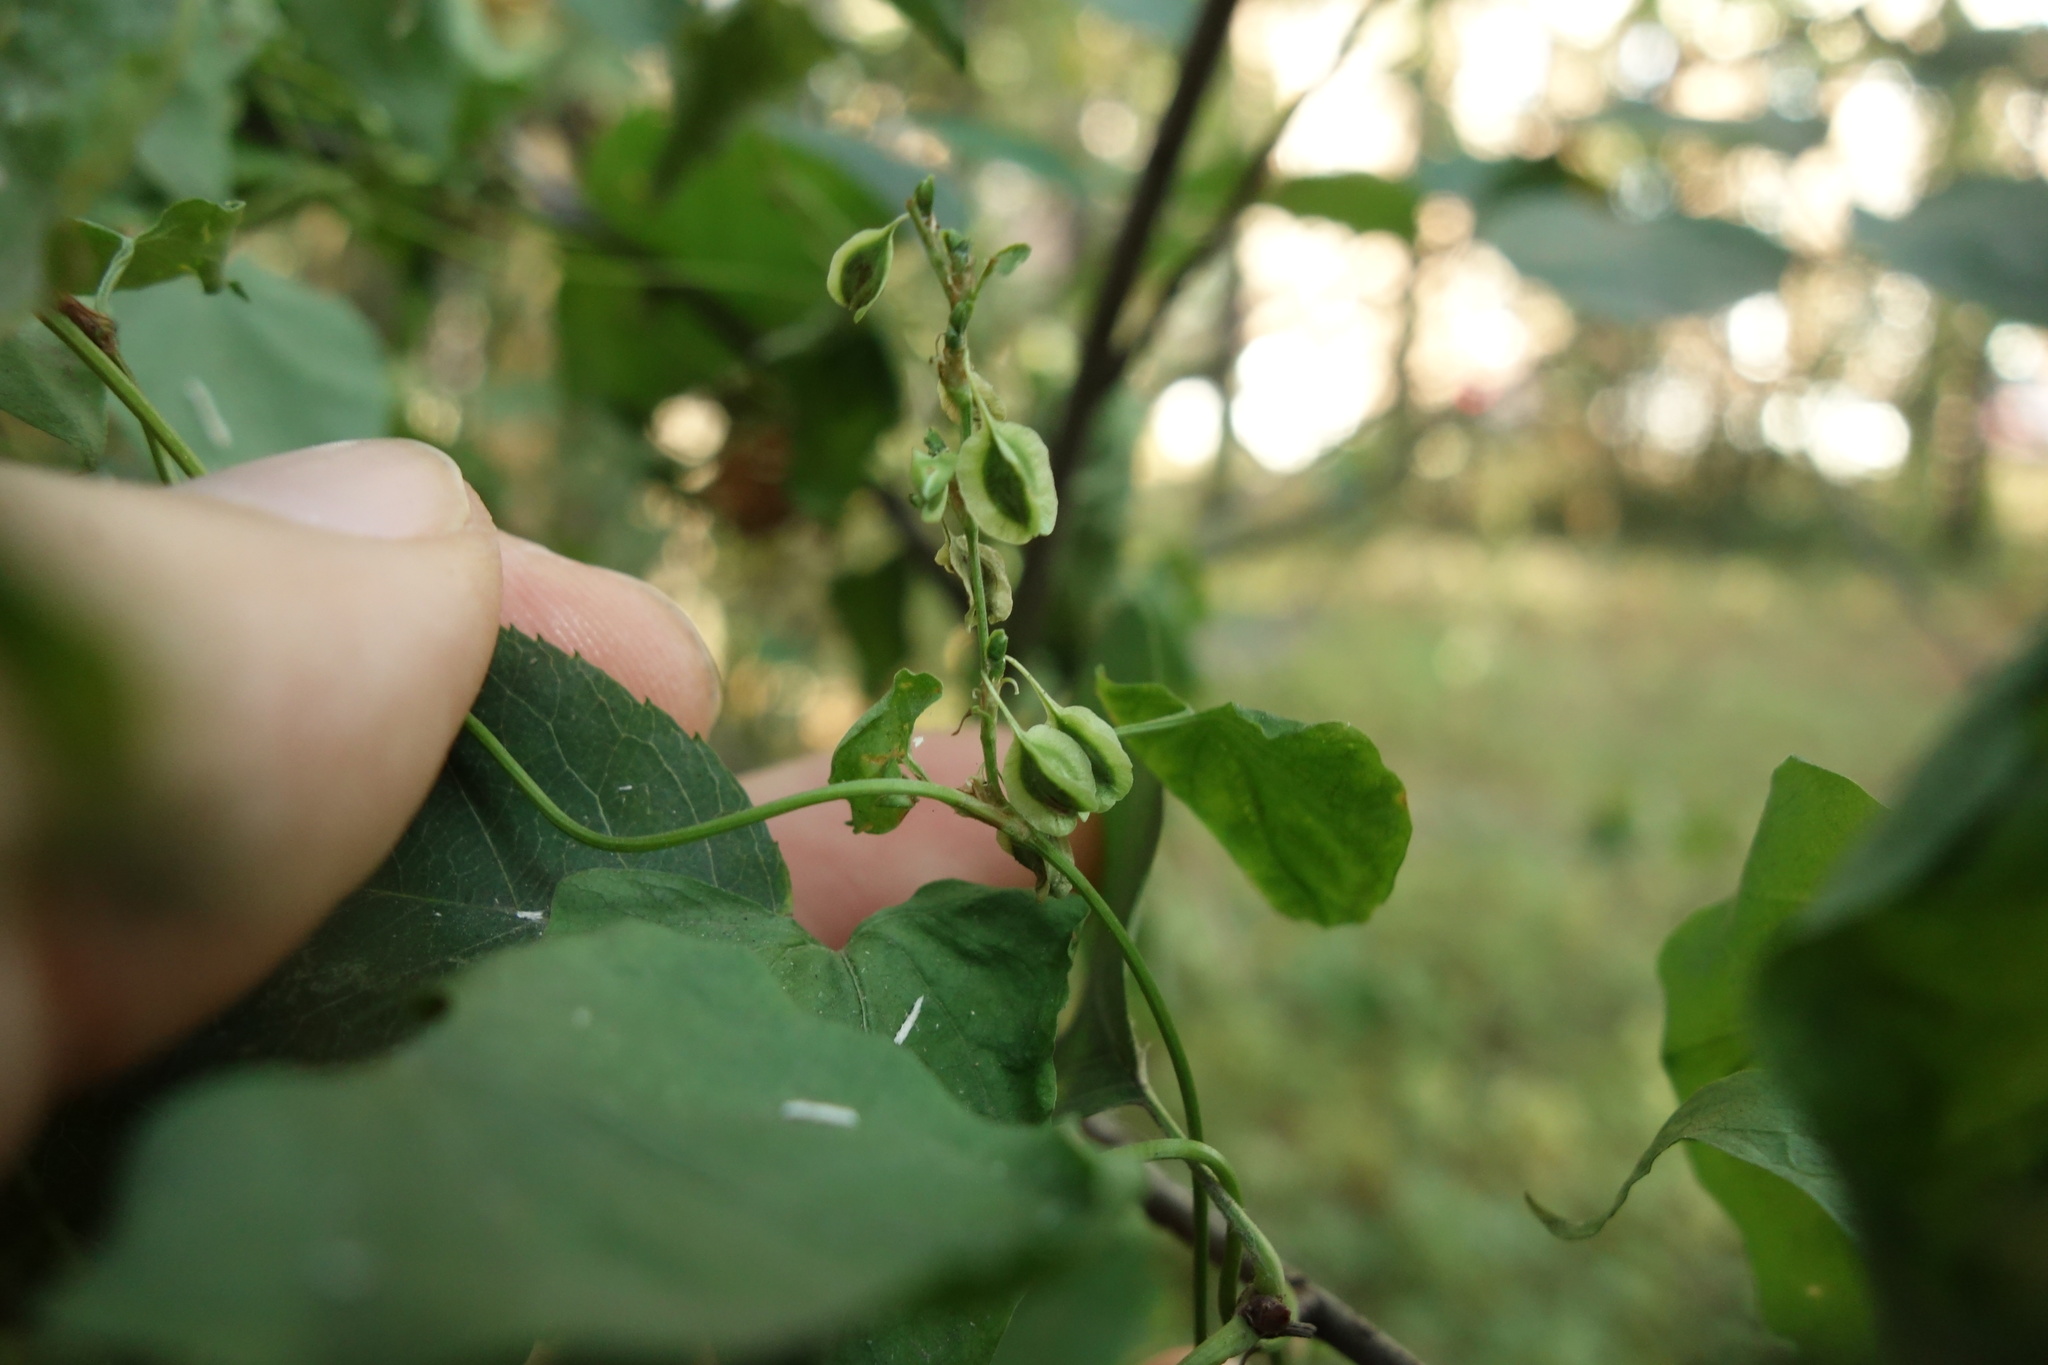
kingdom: Plantae
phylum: Tracheophyta
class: Magnoliopsida
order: Caryophyllales
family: Polygonaceae
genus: Fallopia
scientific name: Fallopia dumetorum
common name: Copse-bindweed
